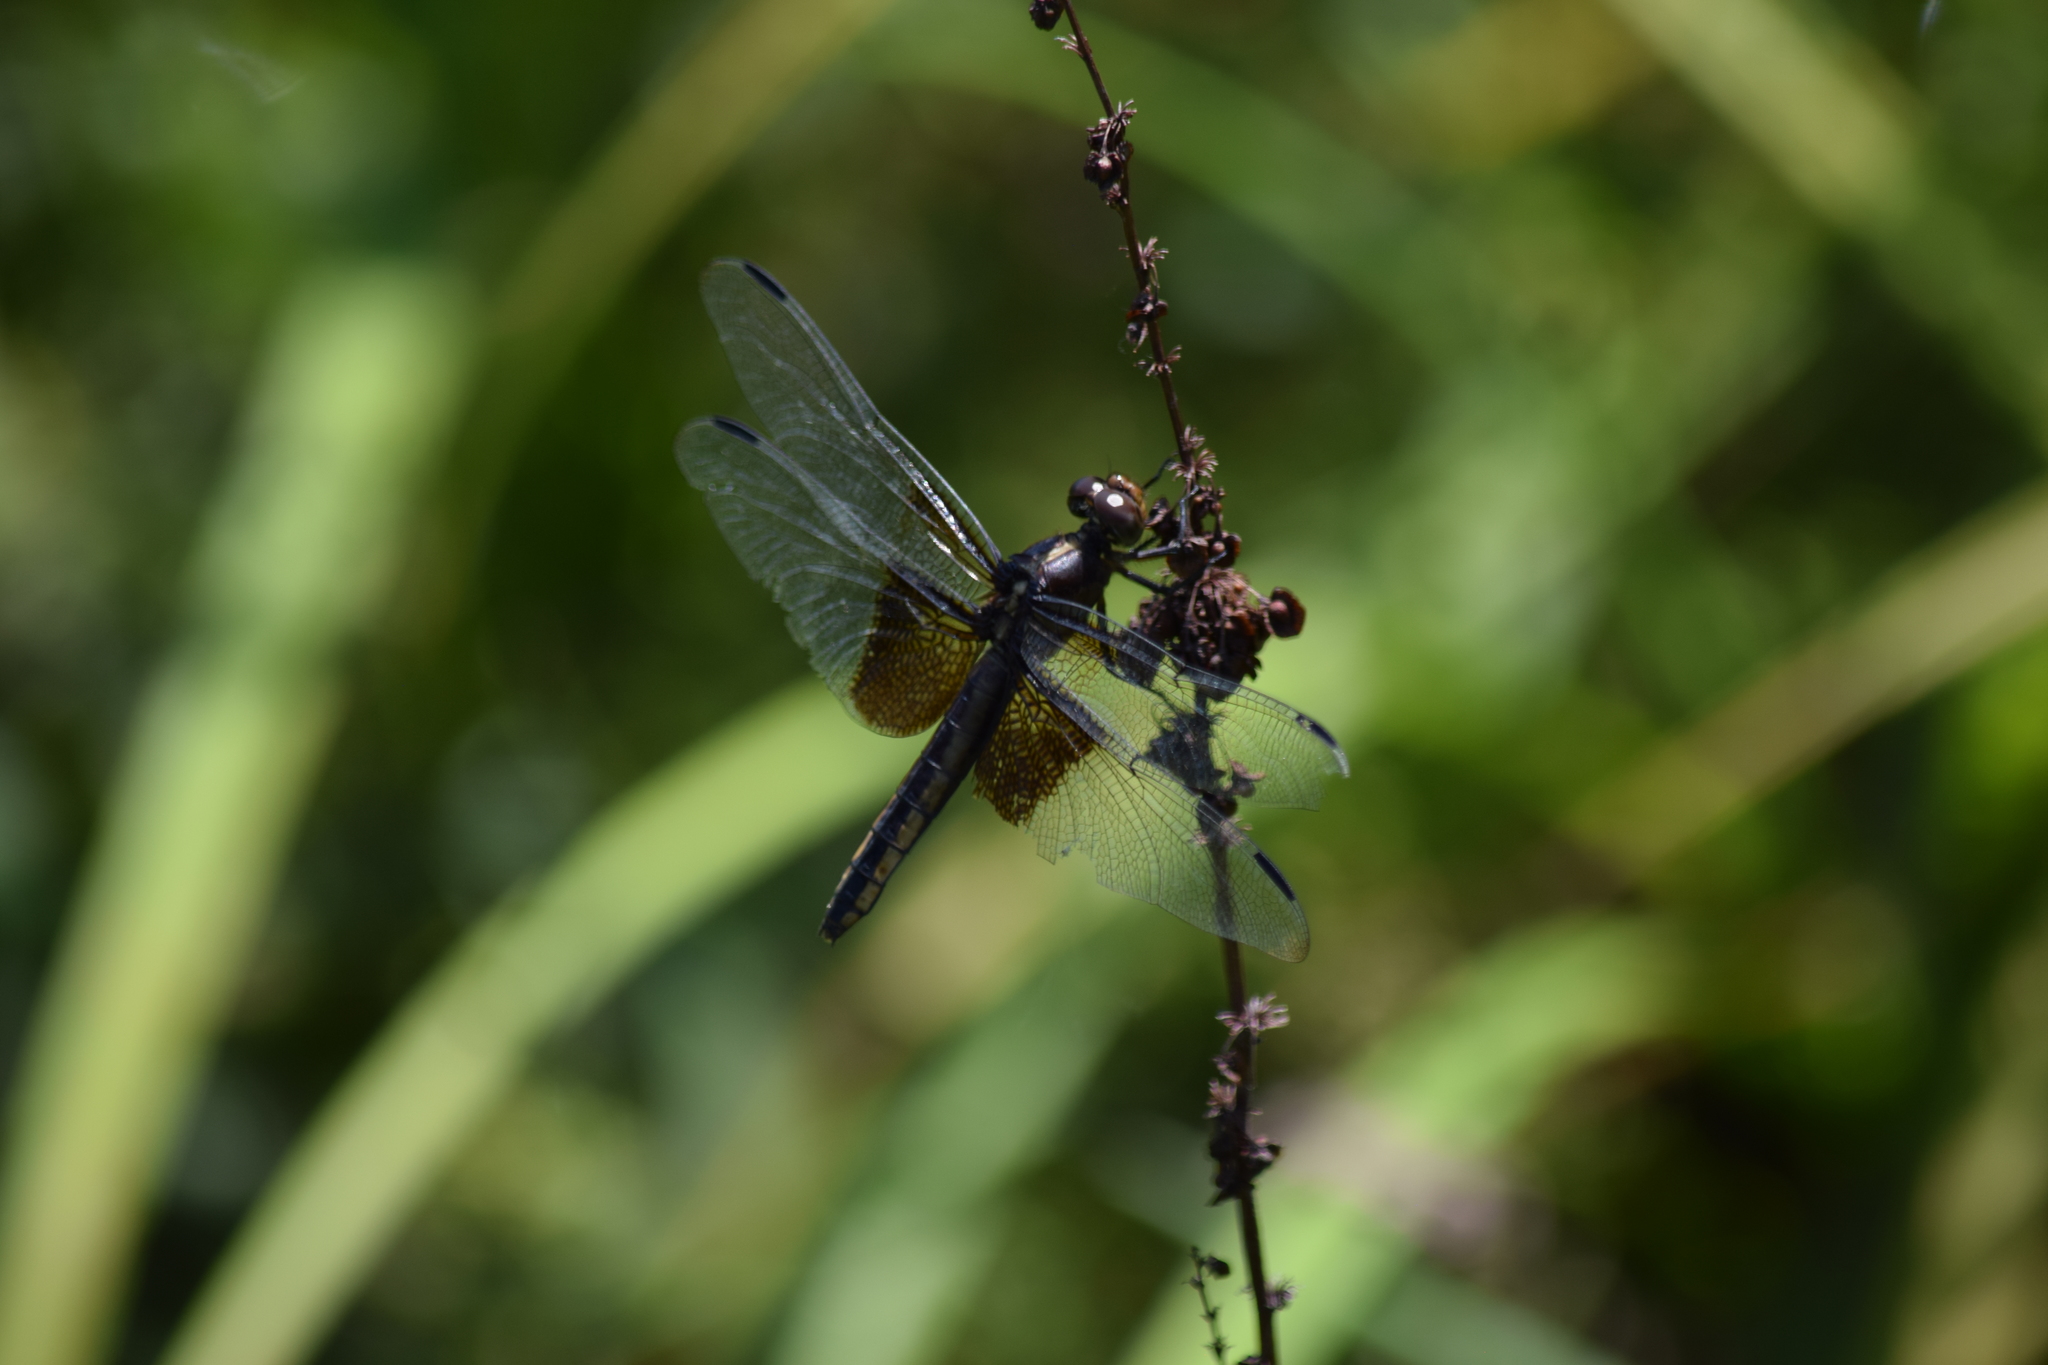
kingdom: Animalia
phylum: Arthropoda
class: Insecta
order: Odonata
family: Libellulidae
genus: Libellula
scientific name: Libellula luctuosa
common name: Widow skimmer
